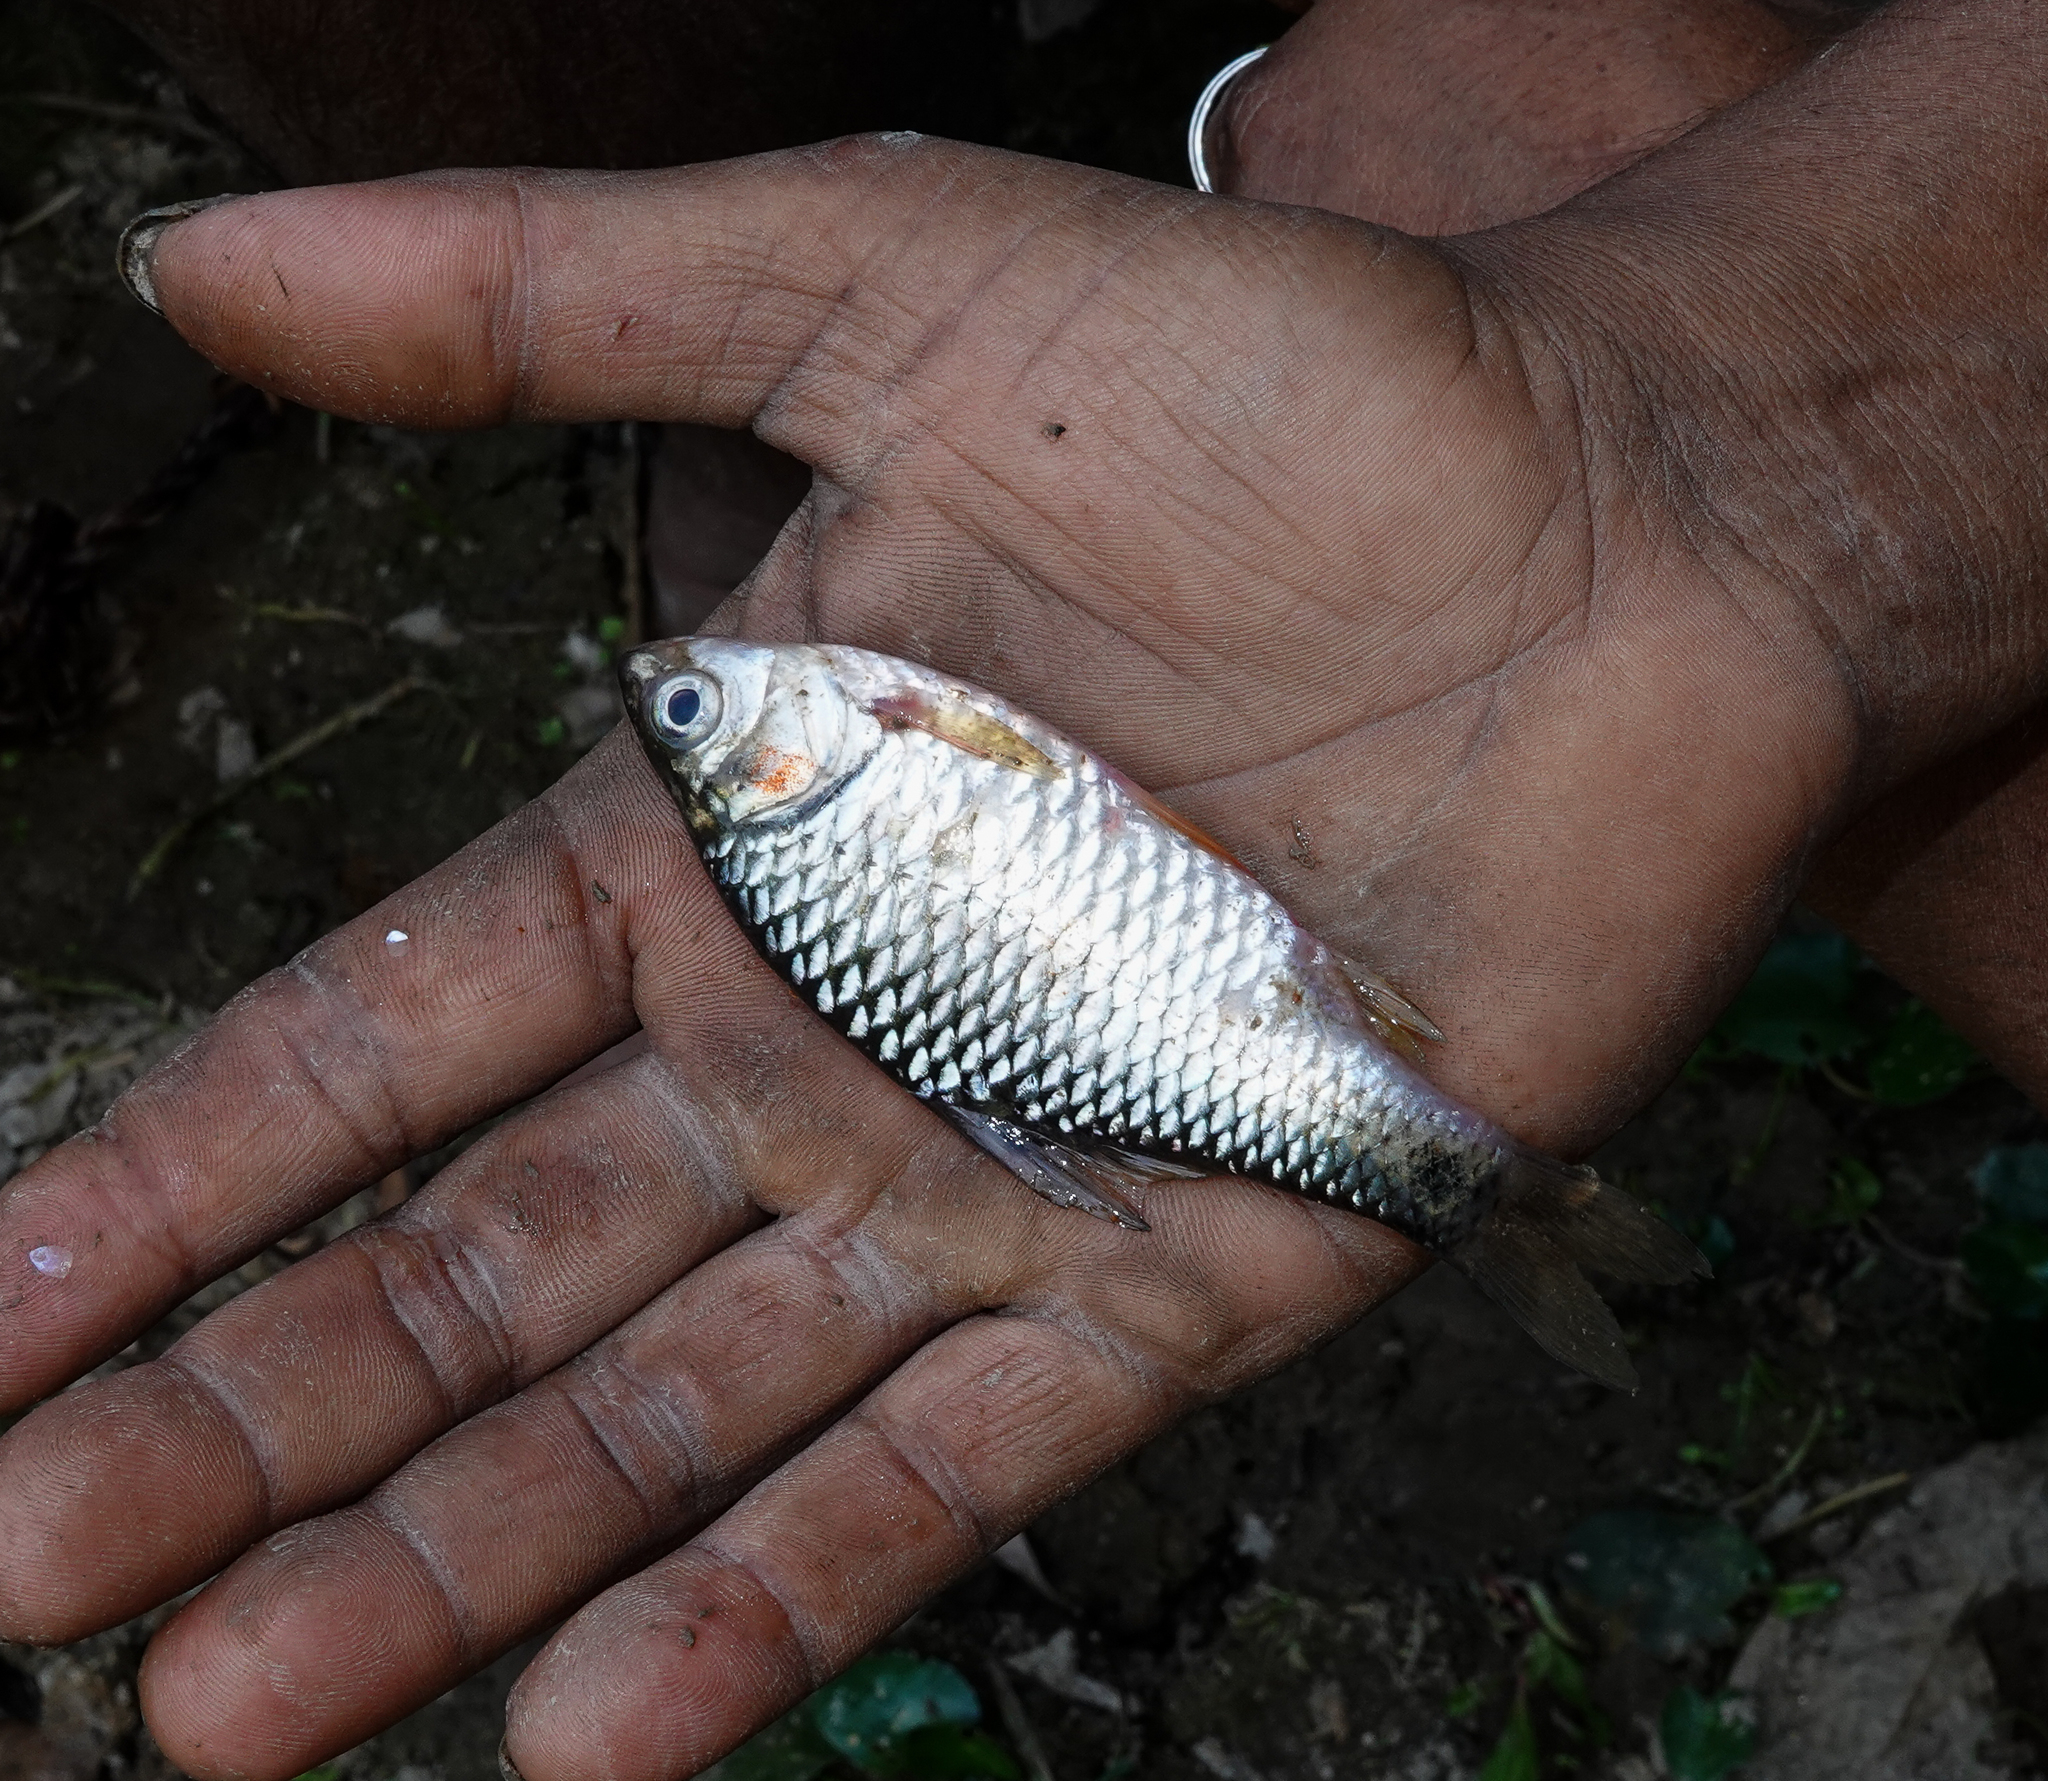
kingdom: Animalia
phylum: Chordata
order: Cypriniformes
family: Cyprinidae
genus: Puntius
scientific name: Puntius chola
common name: Swamp barb
